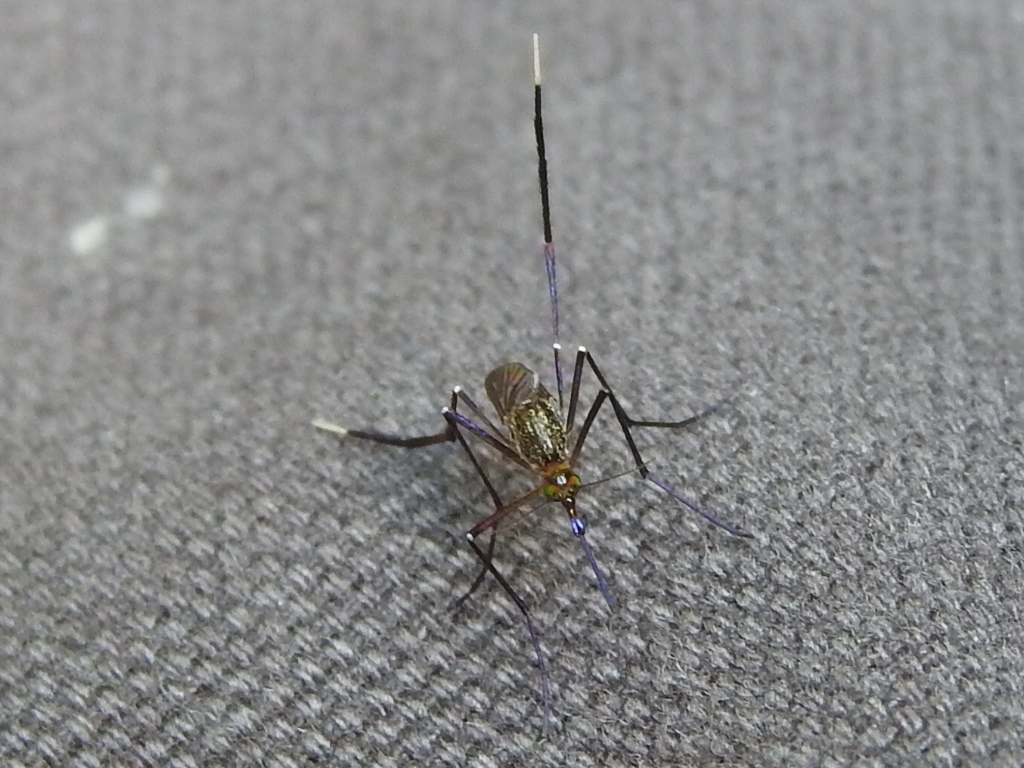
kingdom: Animalia
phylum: Arthropoda
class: Insecta
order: Diptera
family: Culicidae
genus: Psorophora
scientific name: Psorophora ferox
